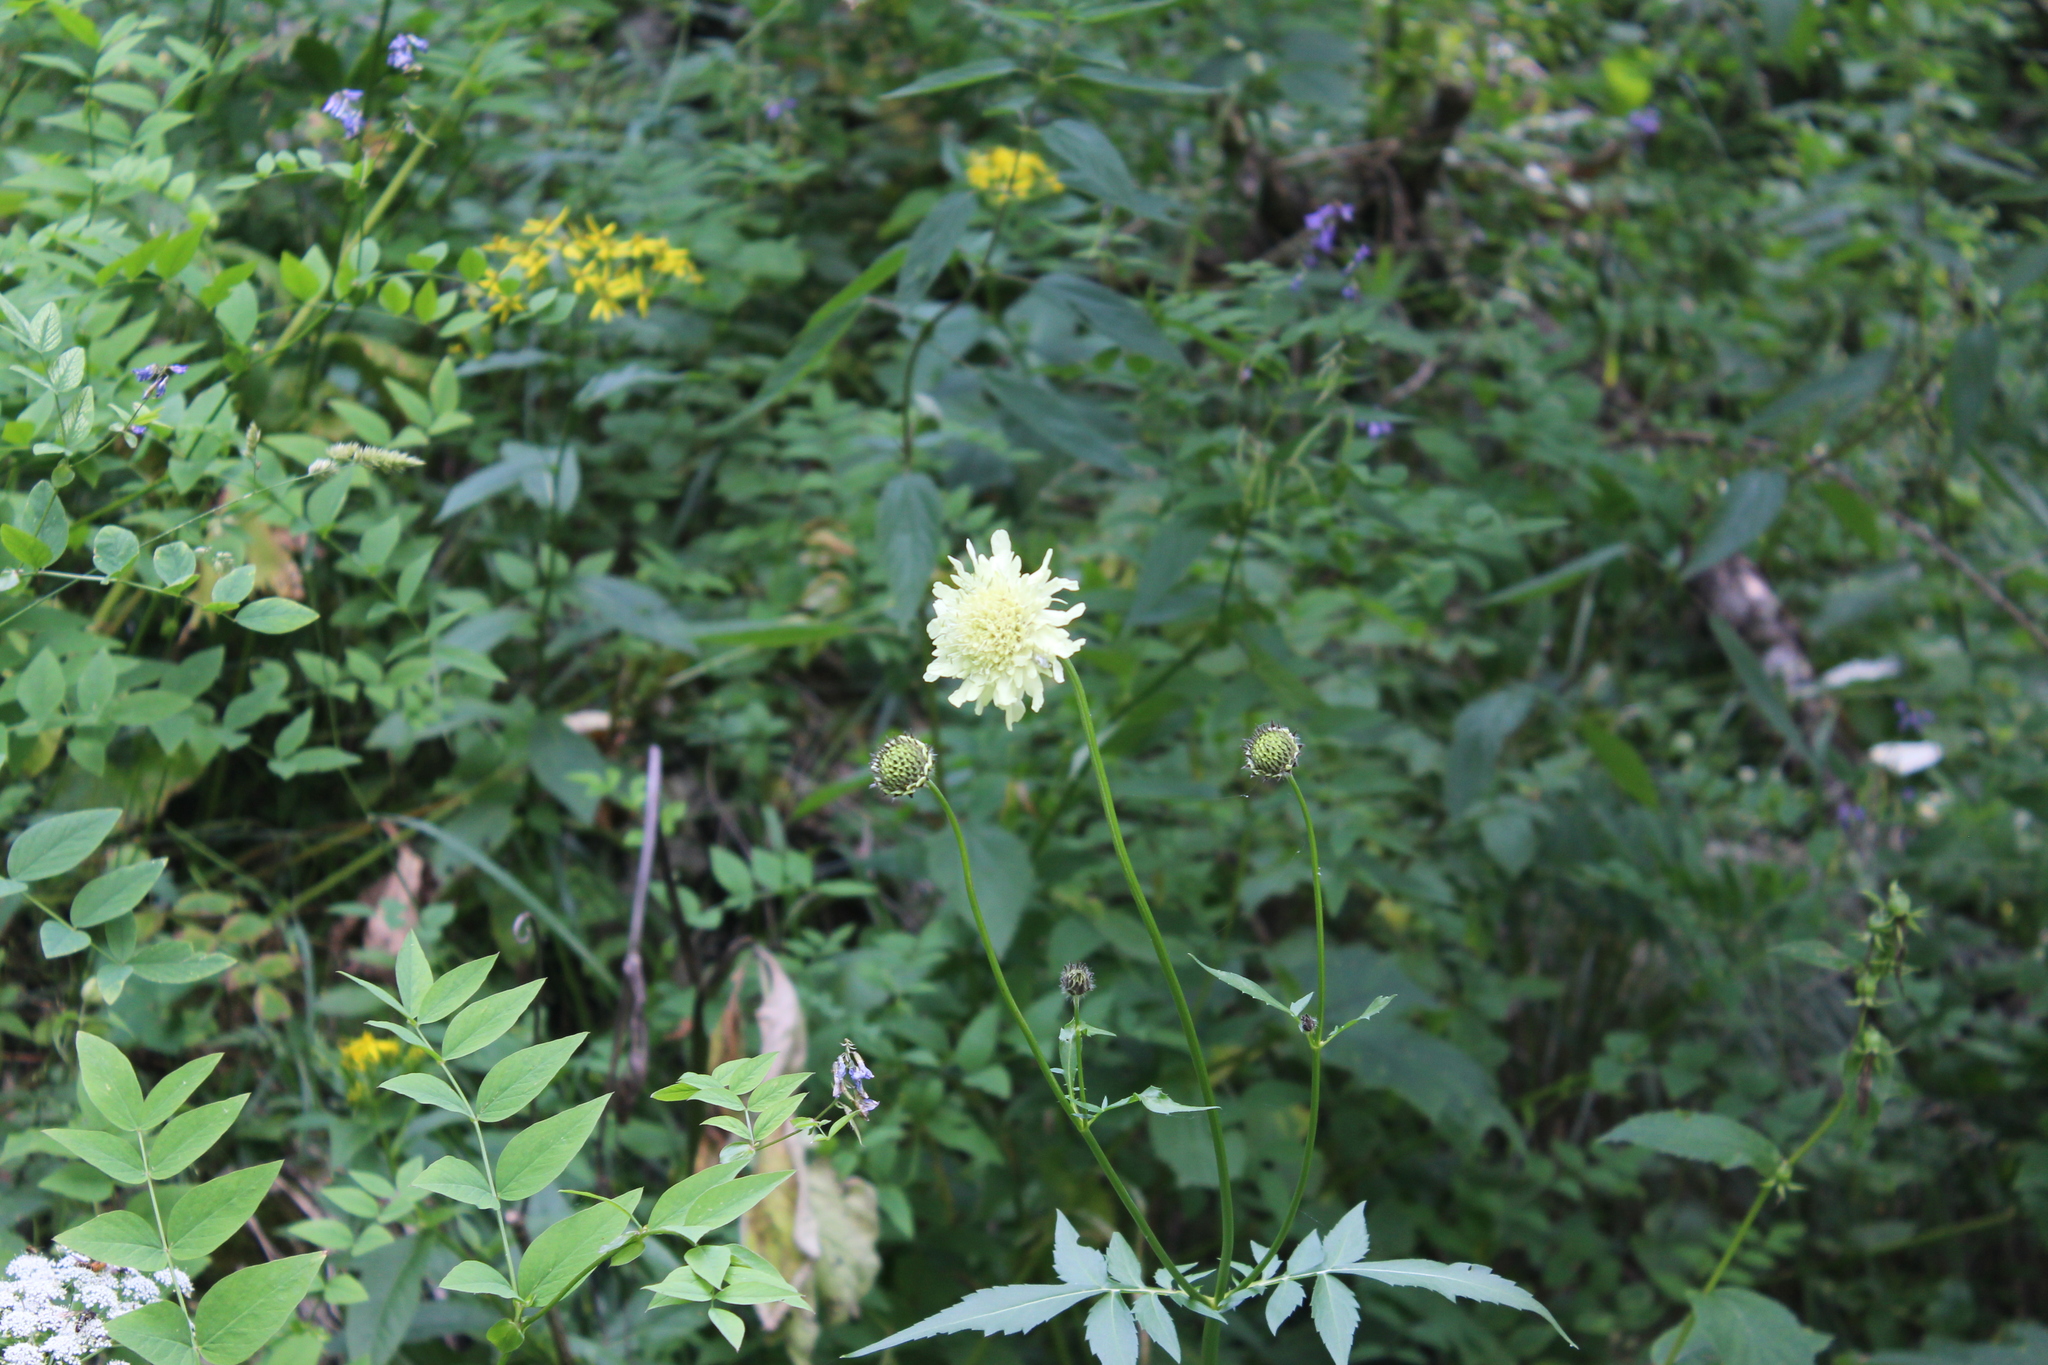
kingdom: Plantae
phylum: Tracheophyta
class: Magnoliopsida
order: Dipsacales
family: Caprifoliaceae
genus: Cephalaria
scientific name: Cephalaria gigantea
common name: Tatarian cephalaria
